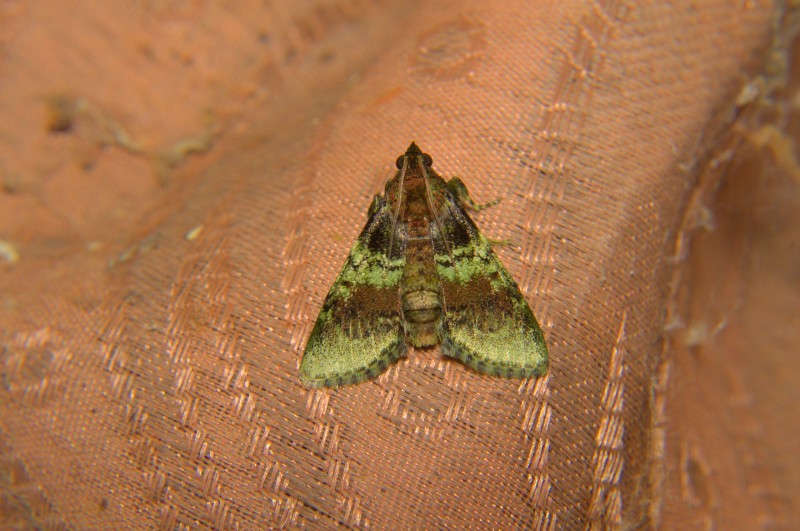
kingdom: Animalia
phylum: Arthropoda
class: Insecta
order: Lepidoptera
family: Pyralidae
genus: Locastra
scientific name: Locastra viridis
